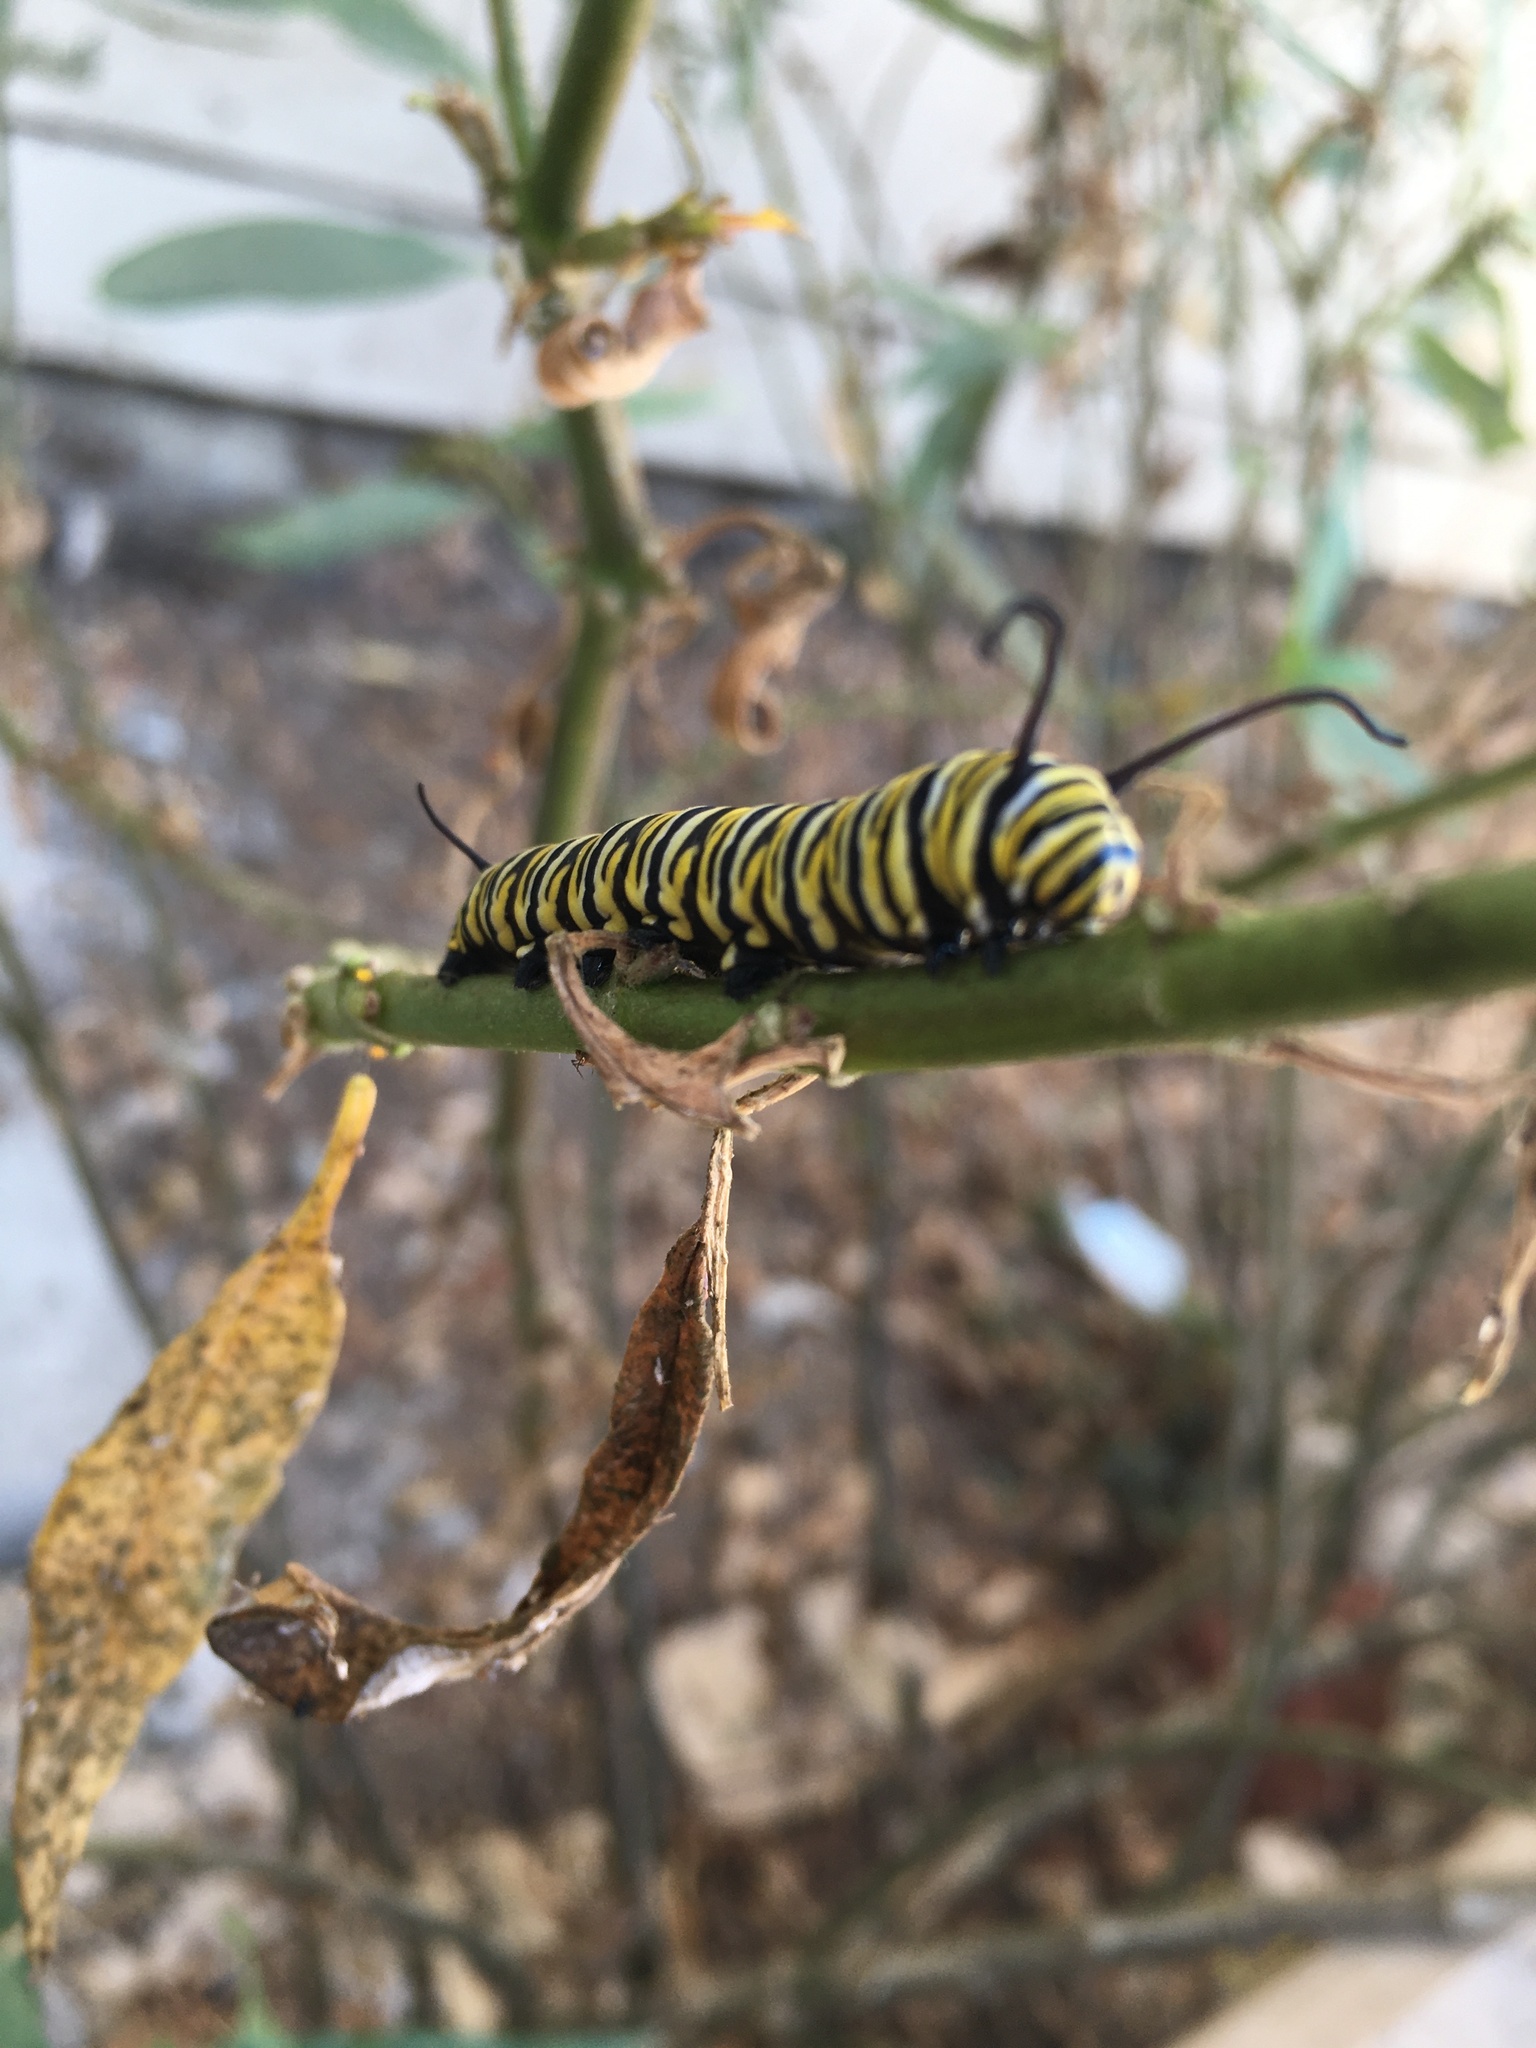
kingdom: Animalia
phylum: Arthropoda
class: Insecta
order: Lepidoptera
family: Nymphalidae
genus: Danaus
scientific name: Danaus plexippus
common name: Monarch
